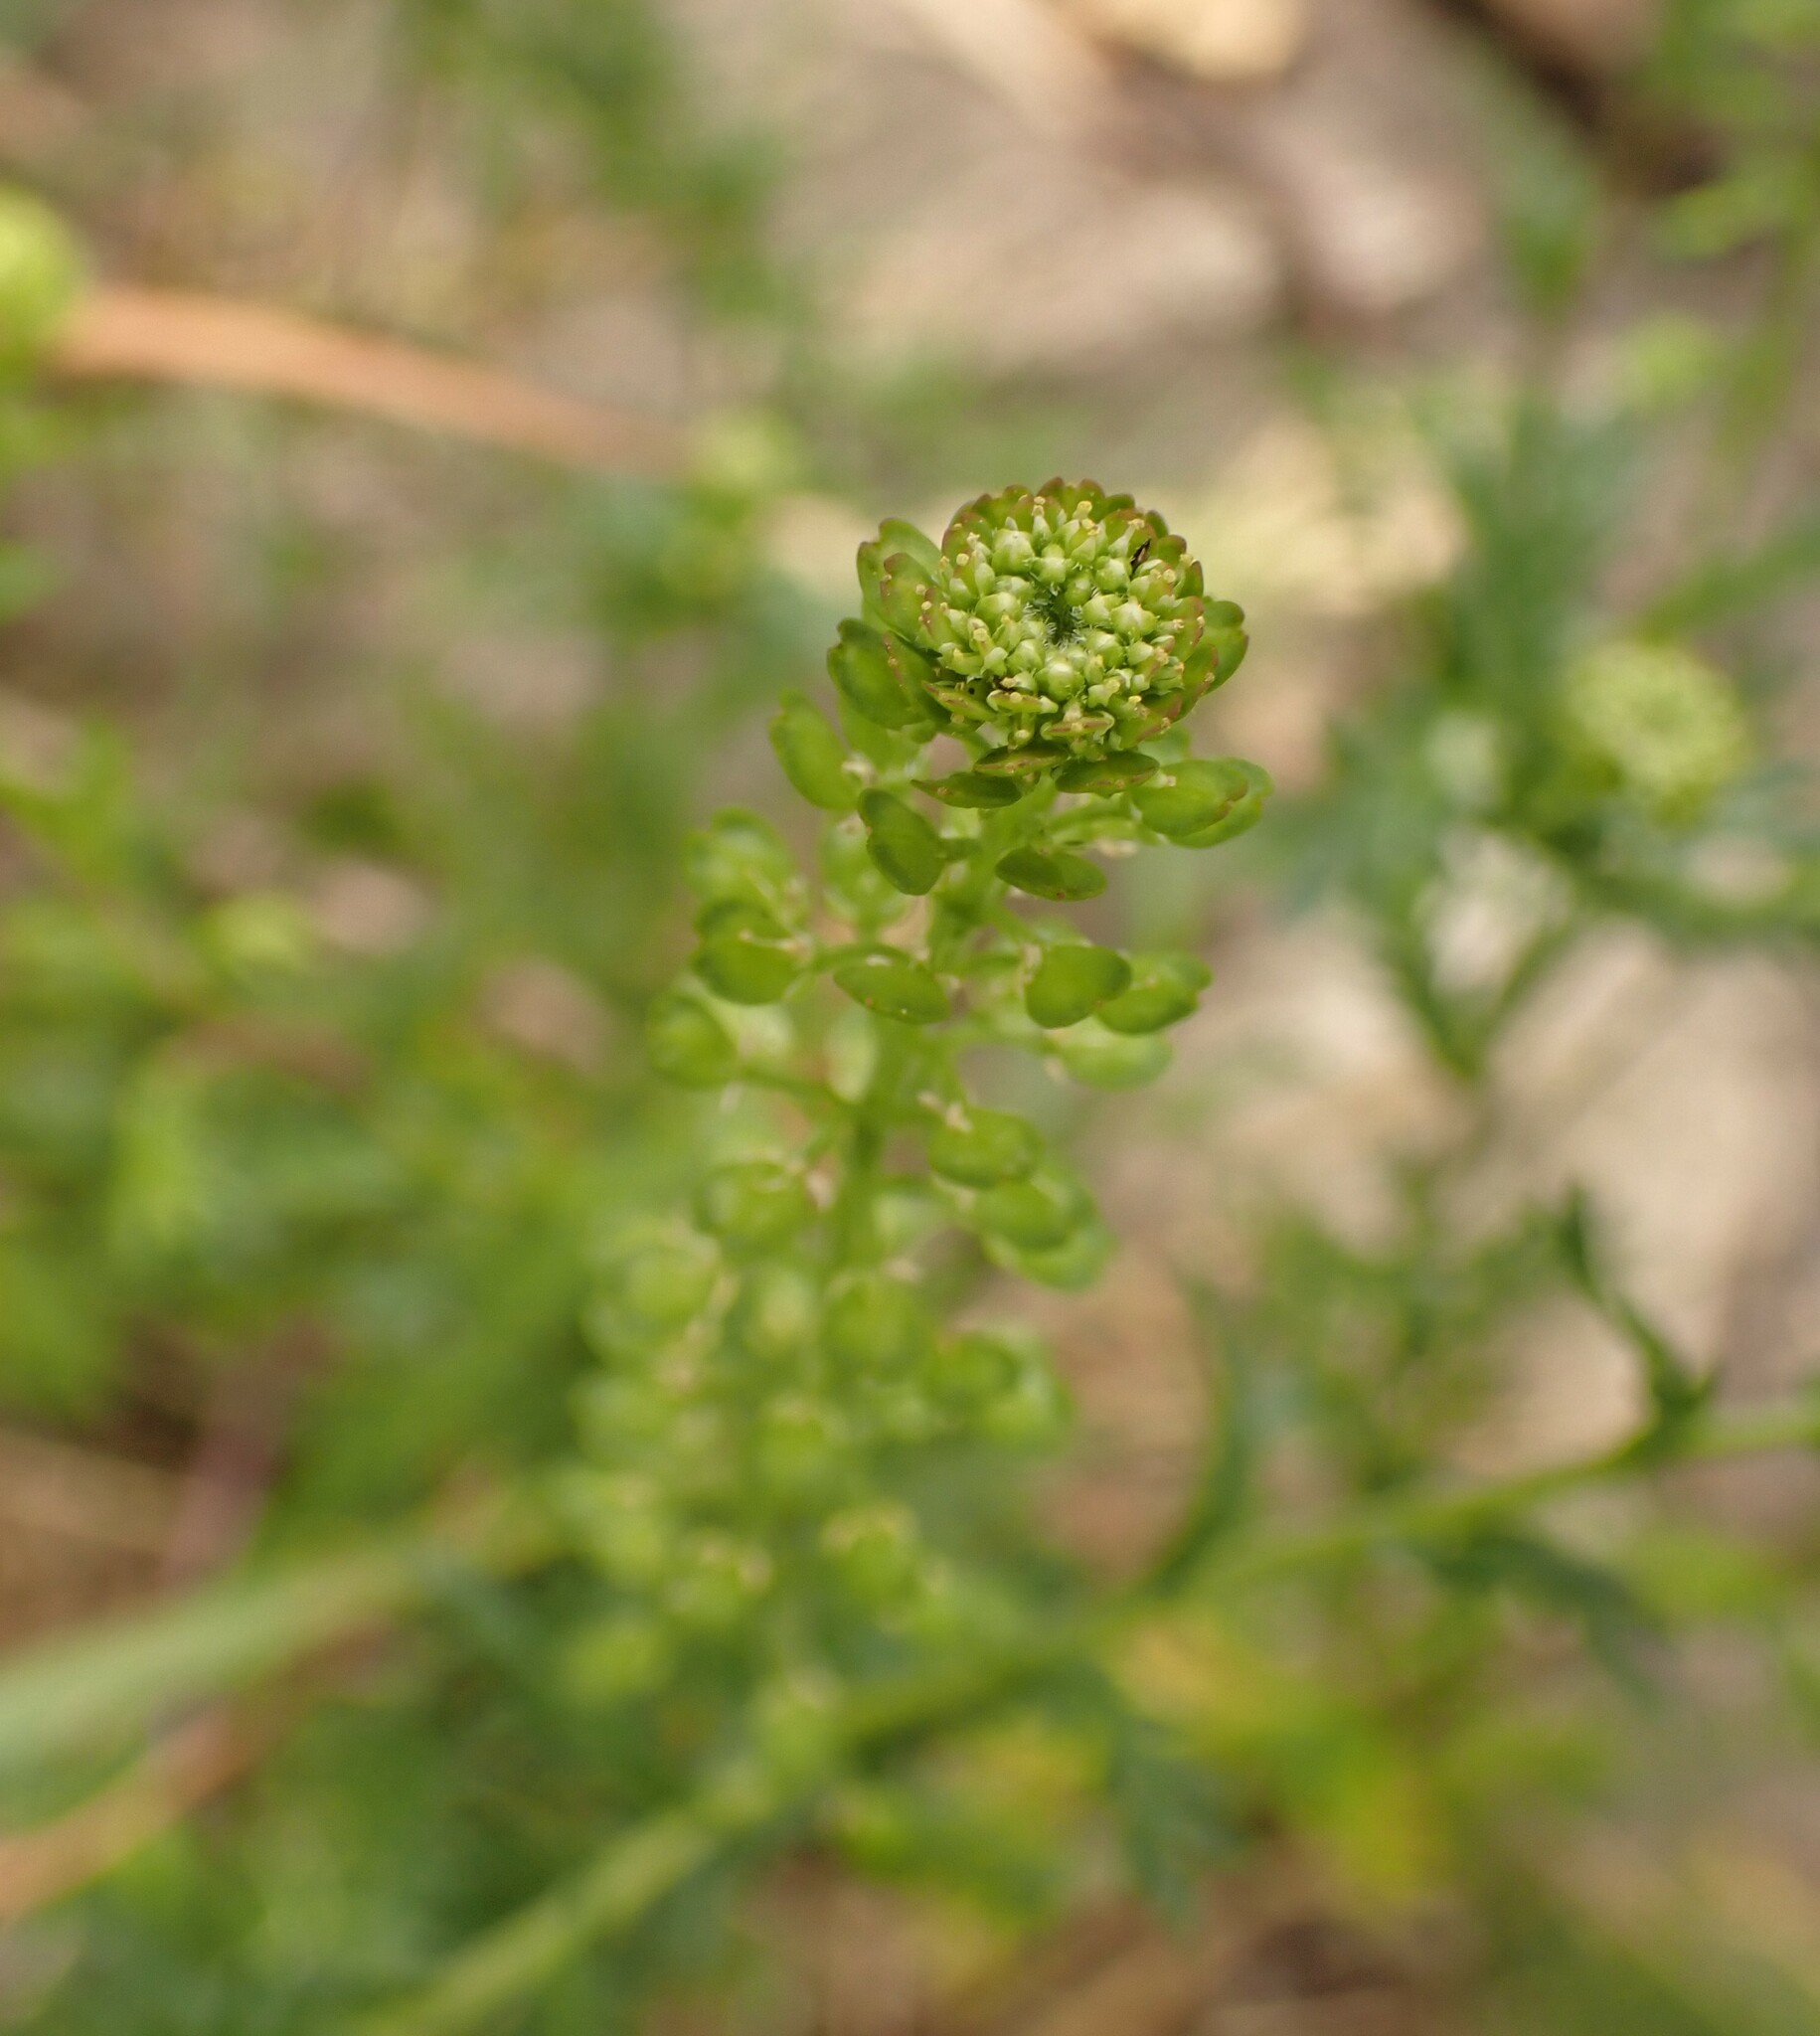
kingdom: Plantae
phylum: Tracheophyta
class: Magnoliopsida
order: Brassicales
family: Brassicaceae
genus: Lepidium
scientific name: Lepidium bipinnatifidum
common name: Wayside pepperwort
